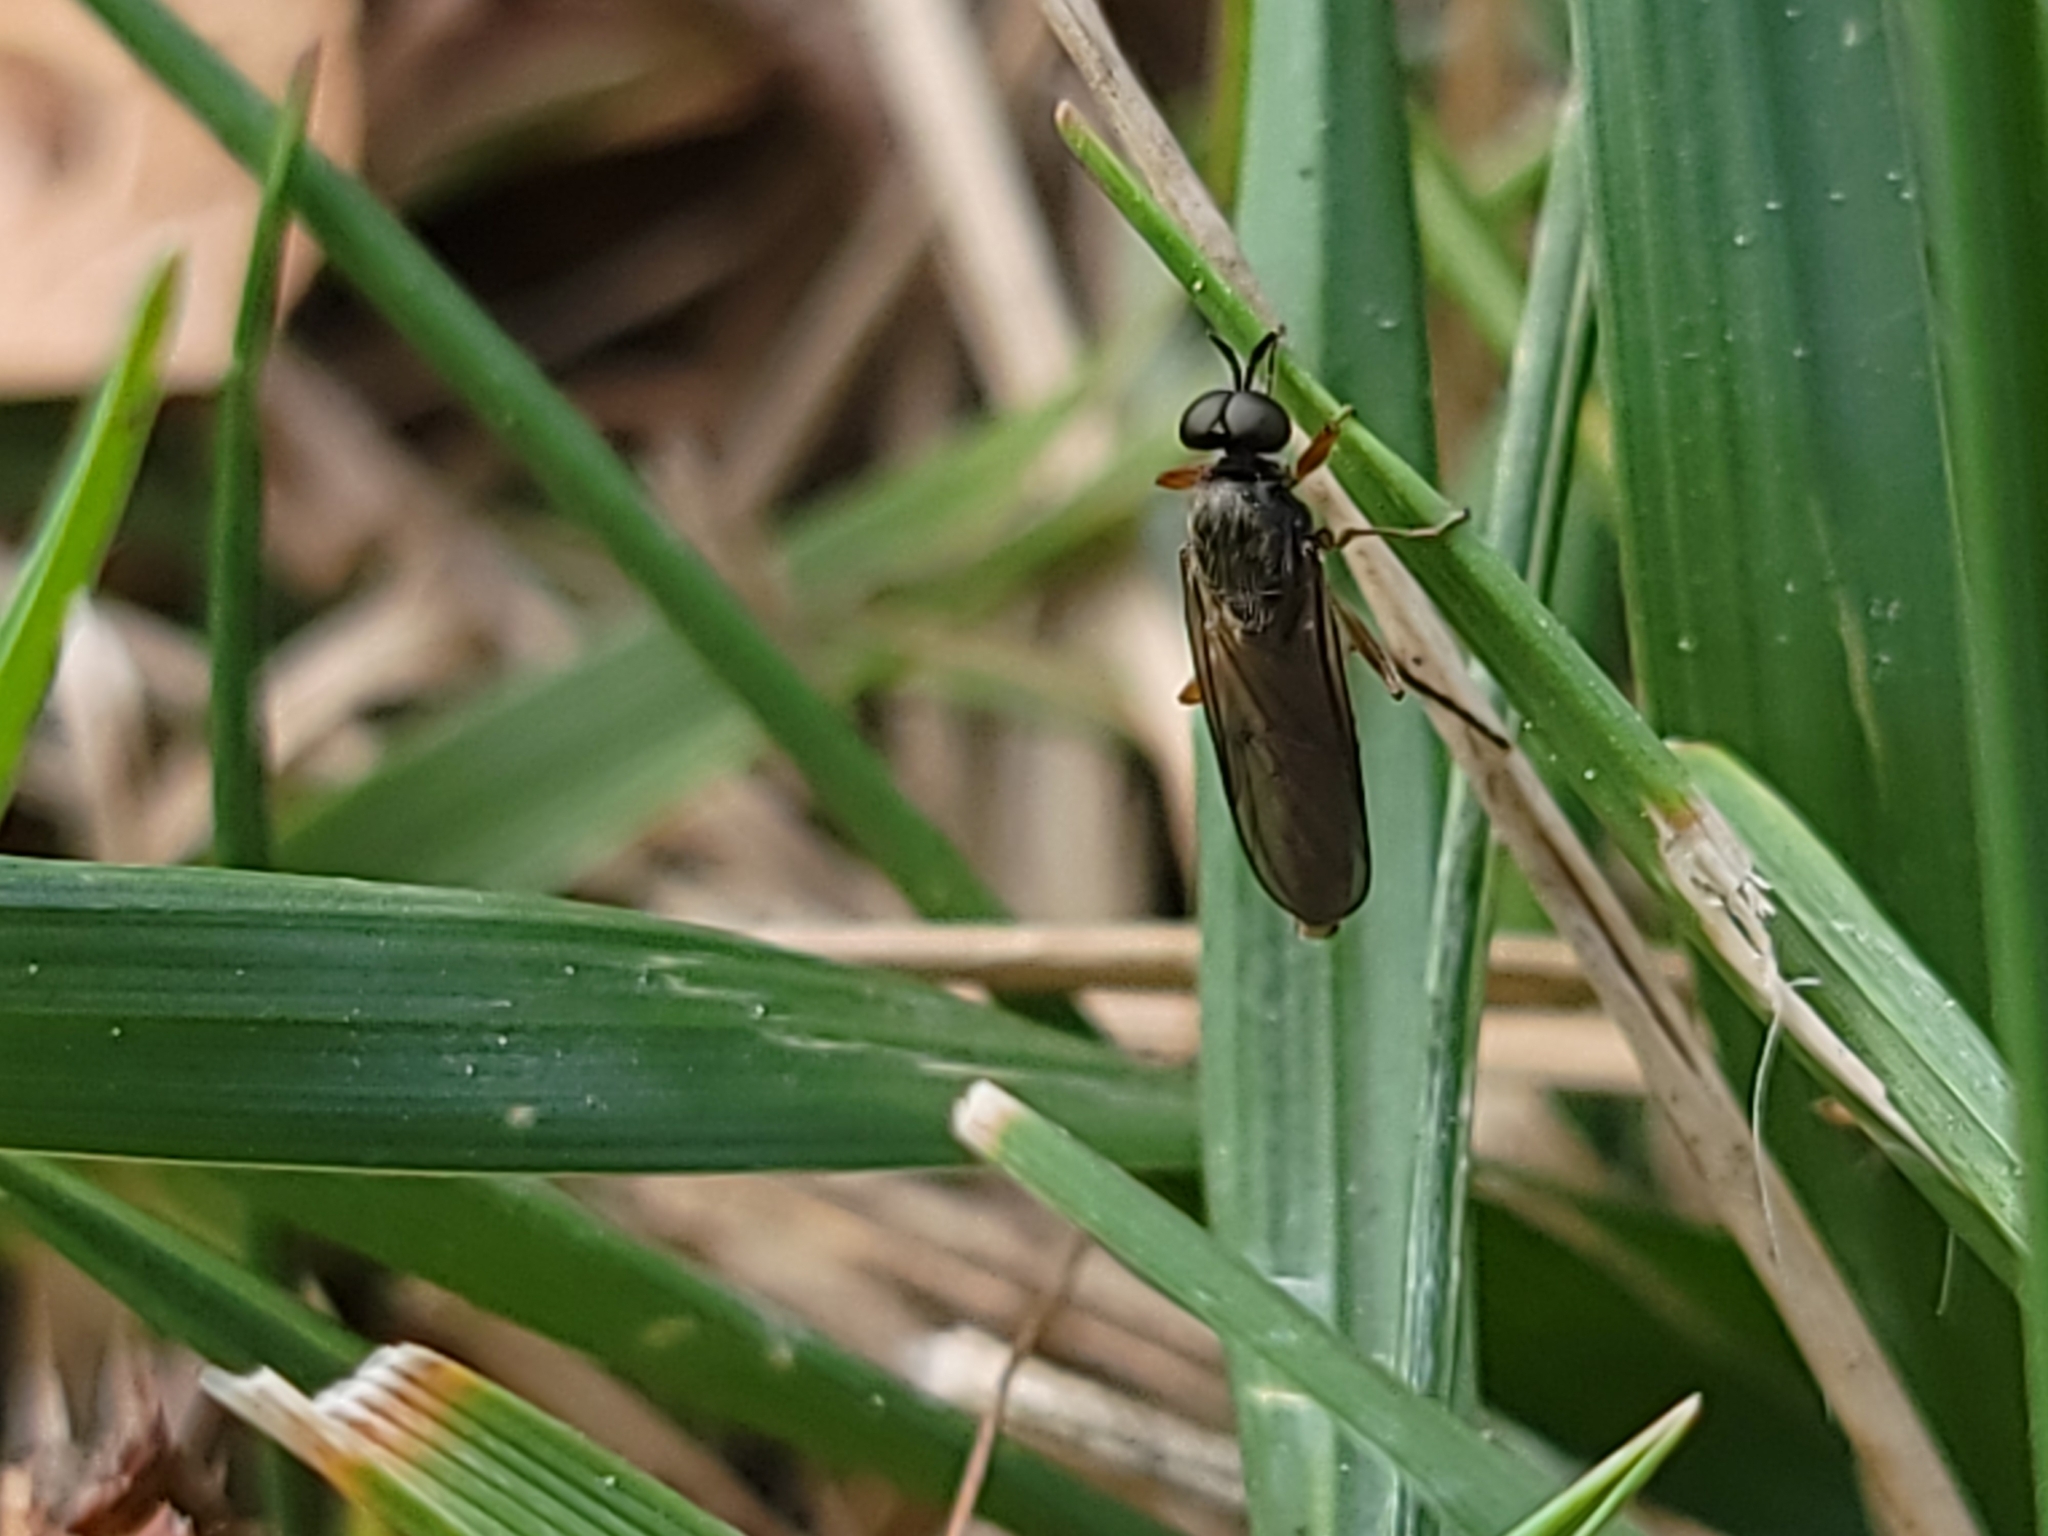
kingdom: Animalia
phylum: Arthropoda
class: Insecta
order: Diptera
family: Stratiomyidae
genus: Inopus
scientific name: Inopus rubriceps
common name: Soldier fly
